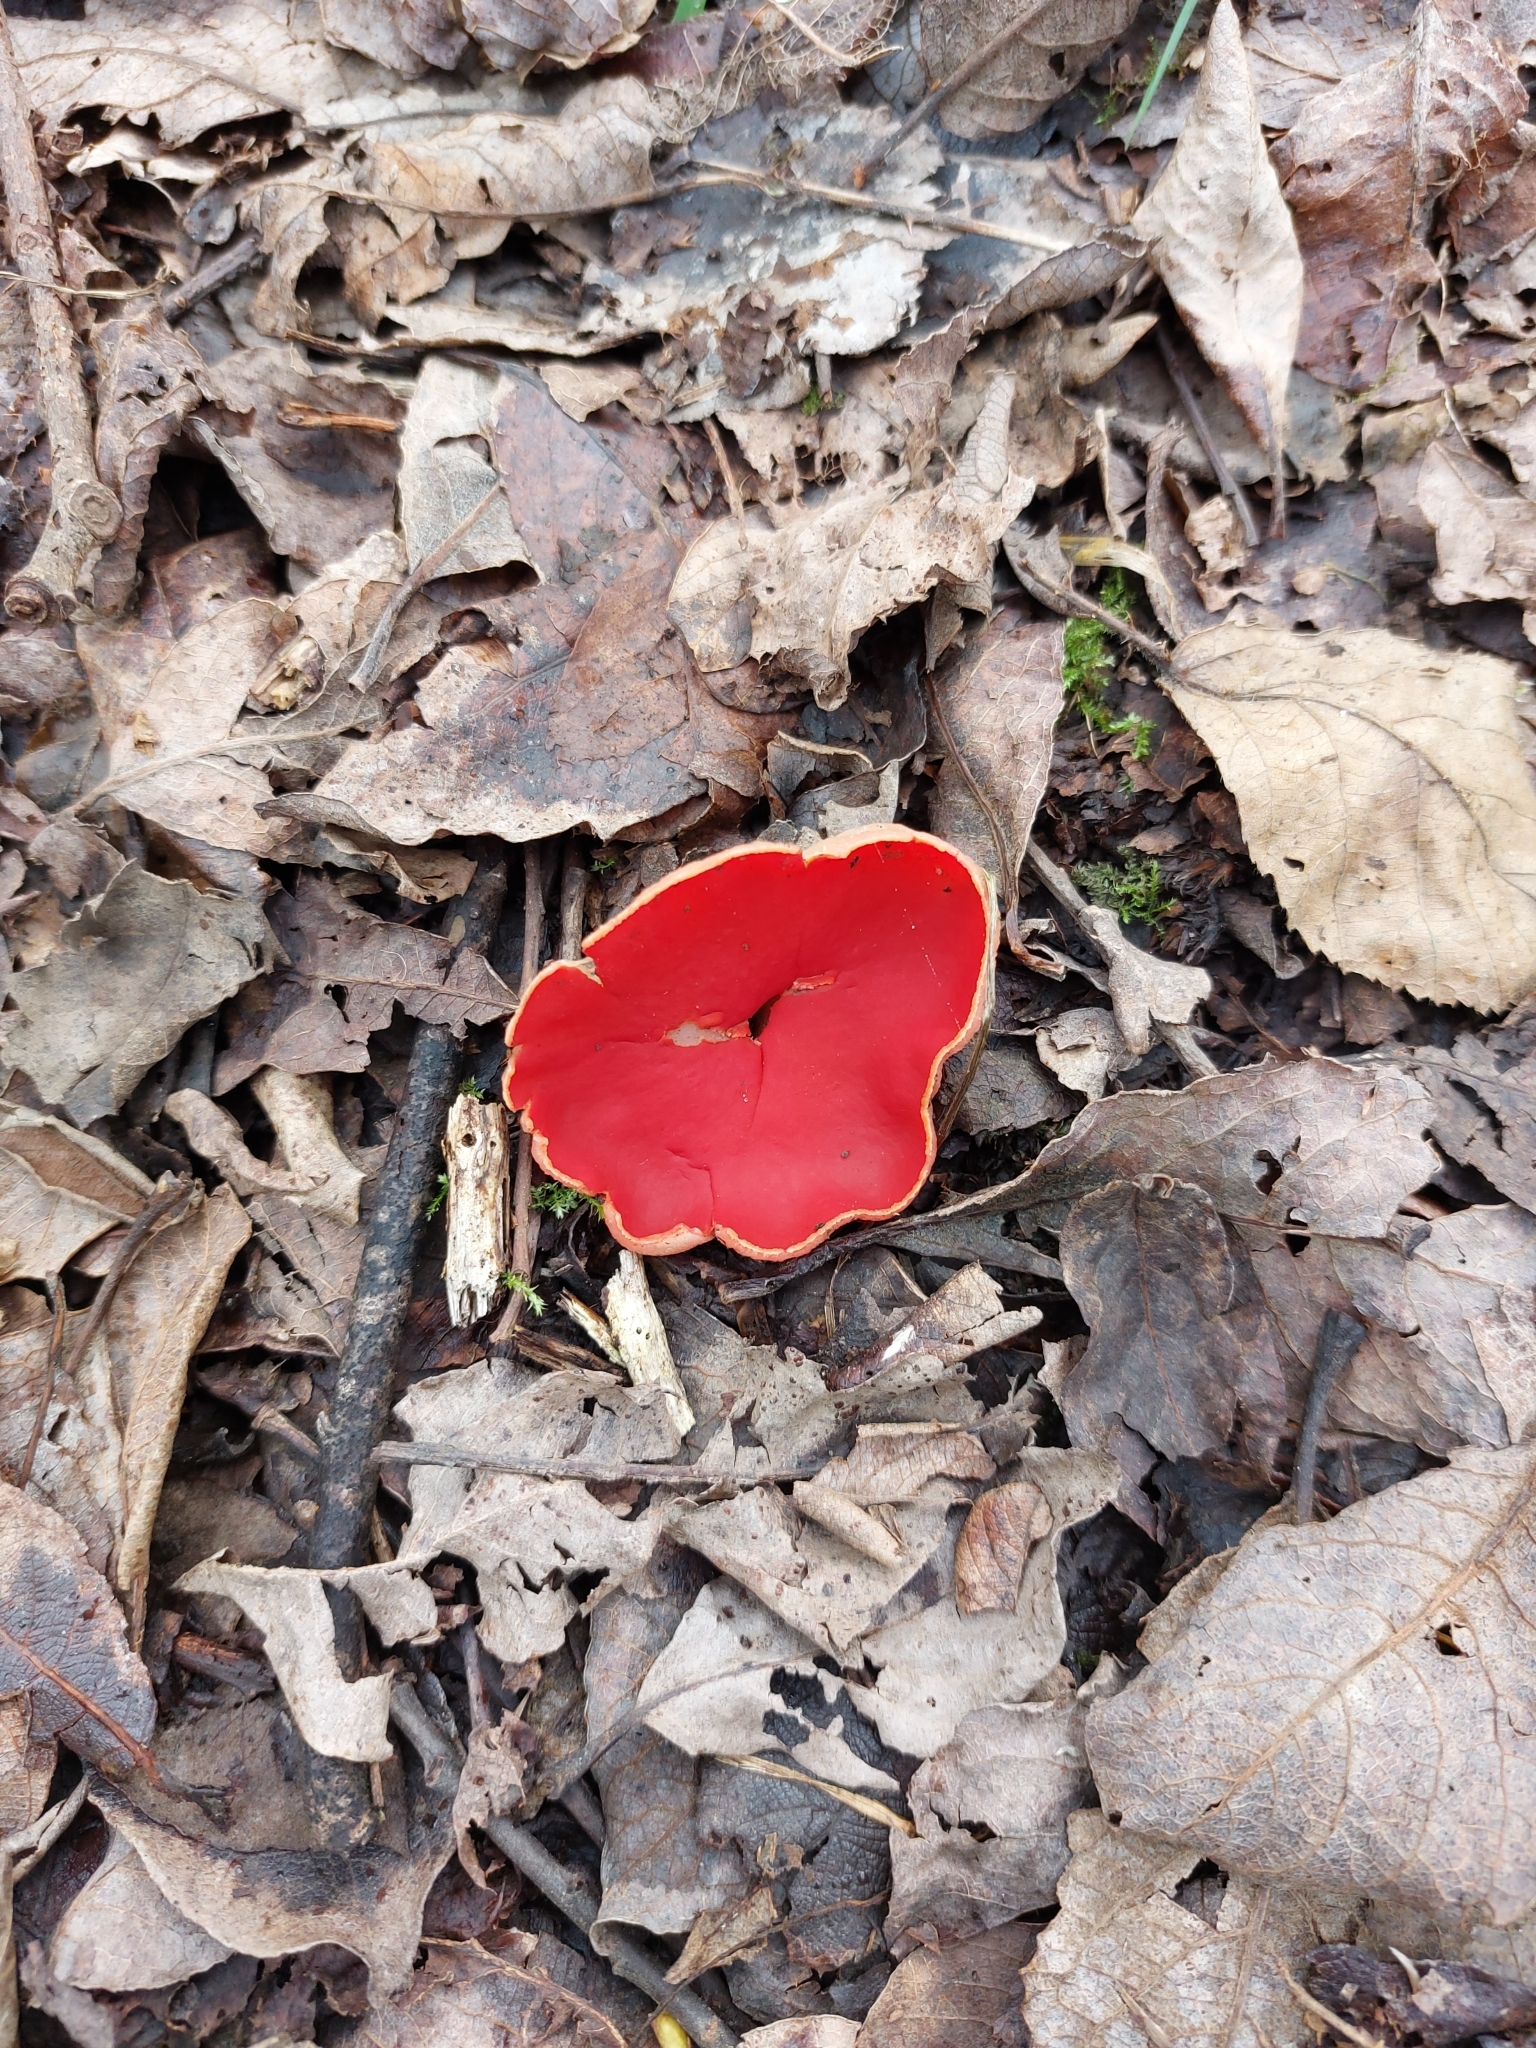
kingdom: Fungi
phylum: Ascomycota
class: Pezizomycetes
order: Pezizales
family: Sarcoscyphaceae
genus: Sarcoscypha
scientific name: Sarcoscypha
